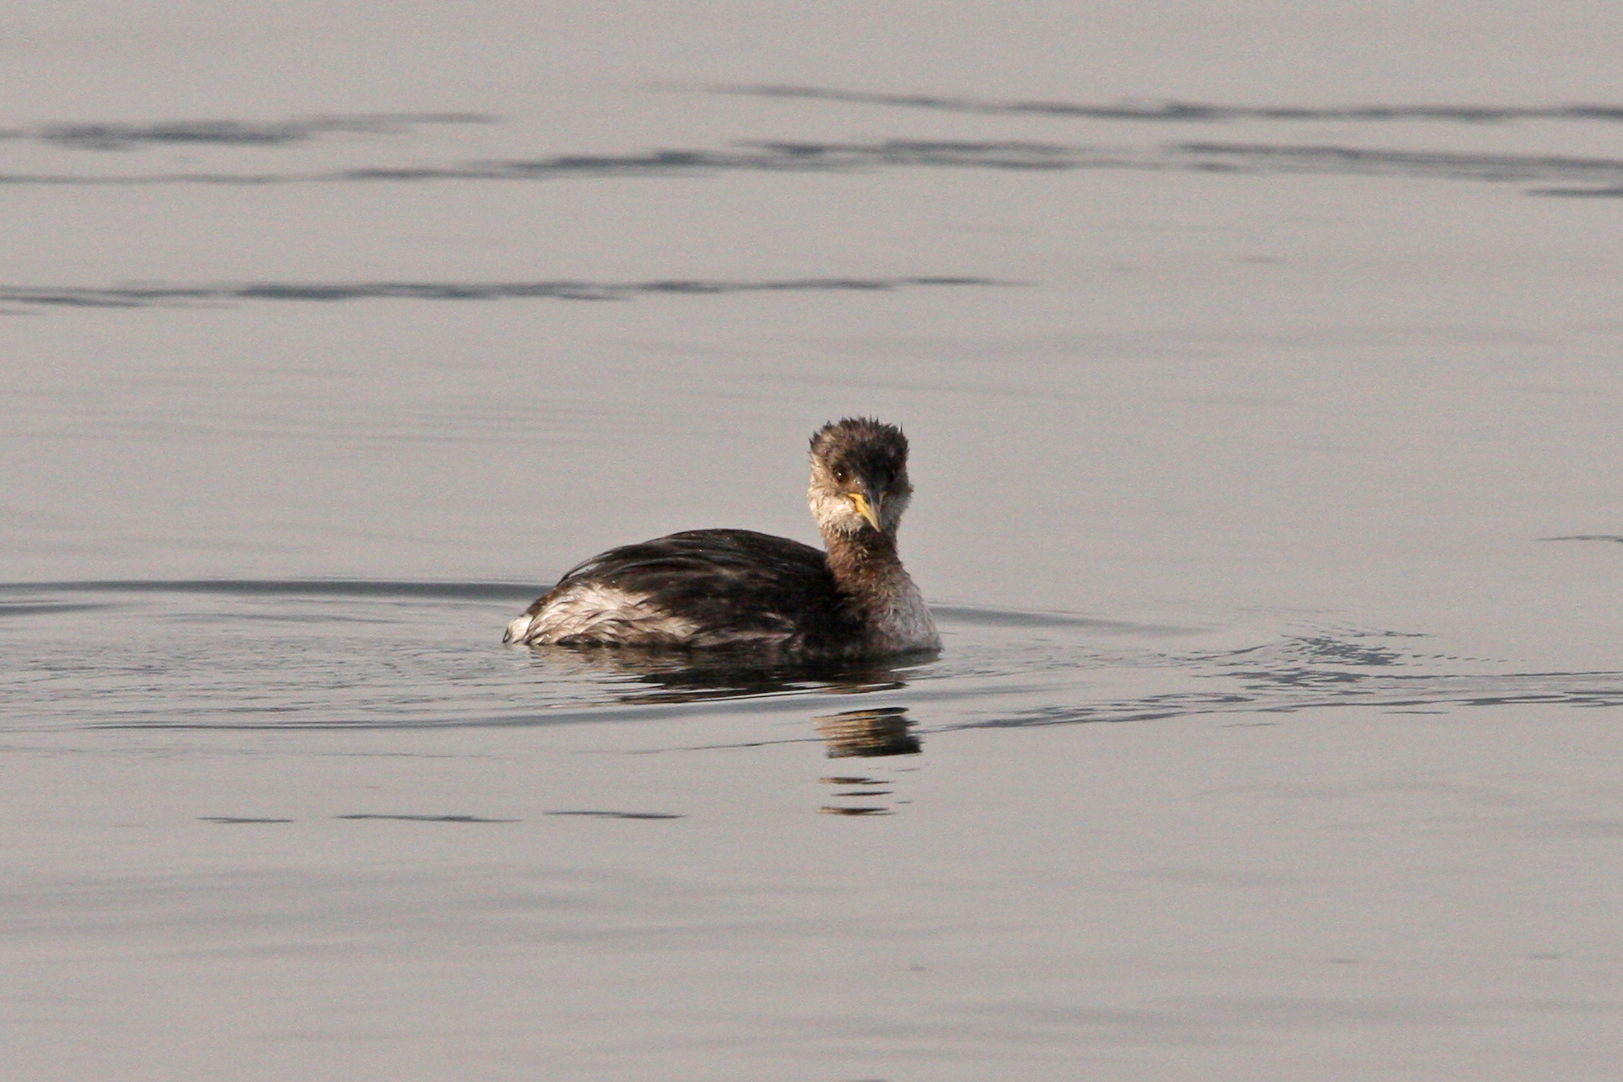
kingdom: Animalia
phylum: Chordata
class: Aves
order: Podicipediformes
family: Podicipedidae
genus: Podiceps
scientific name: Podiceps grisegena
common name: Red-necked grebe
